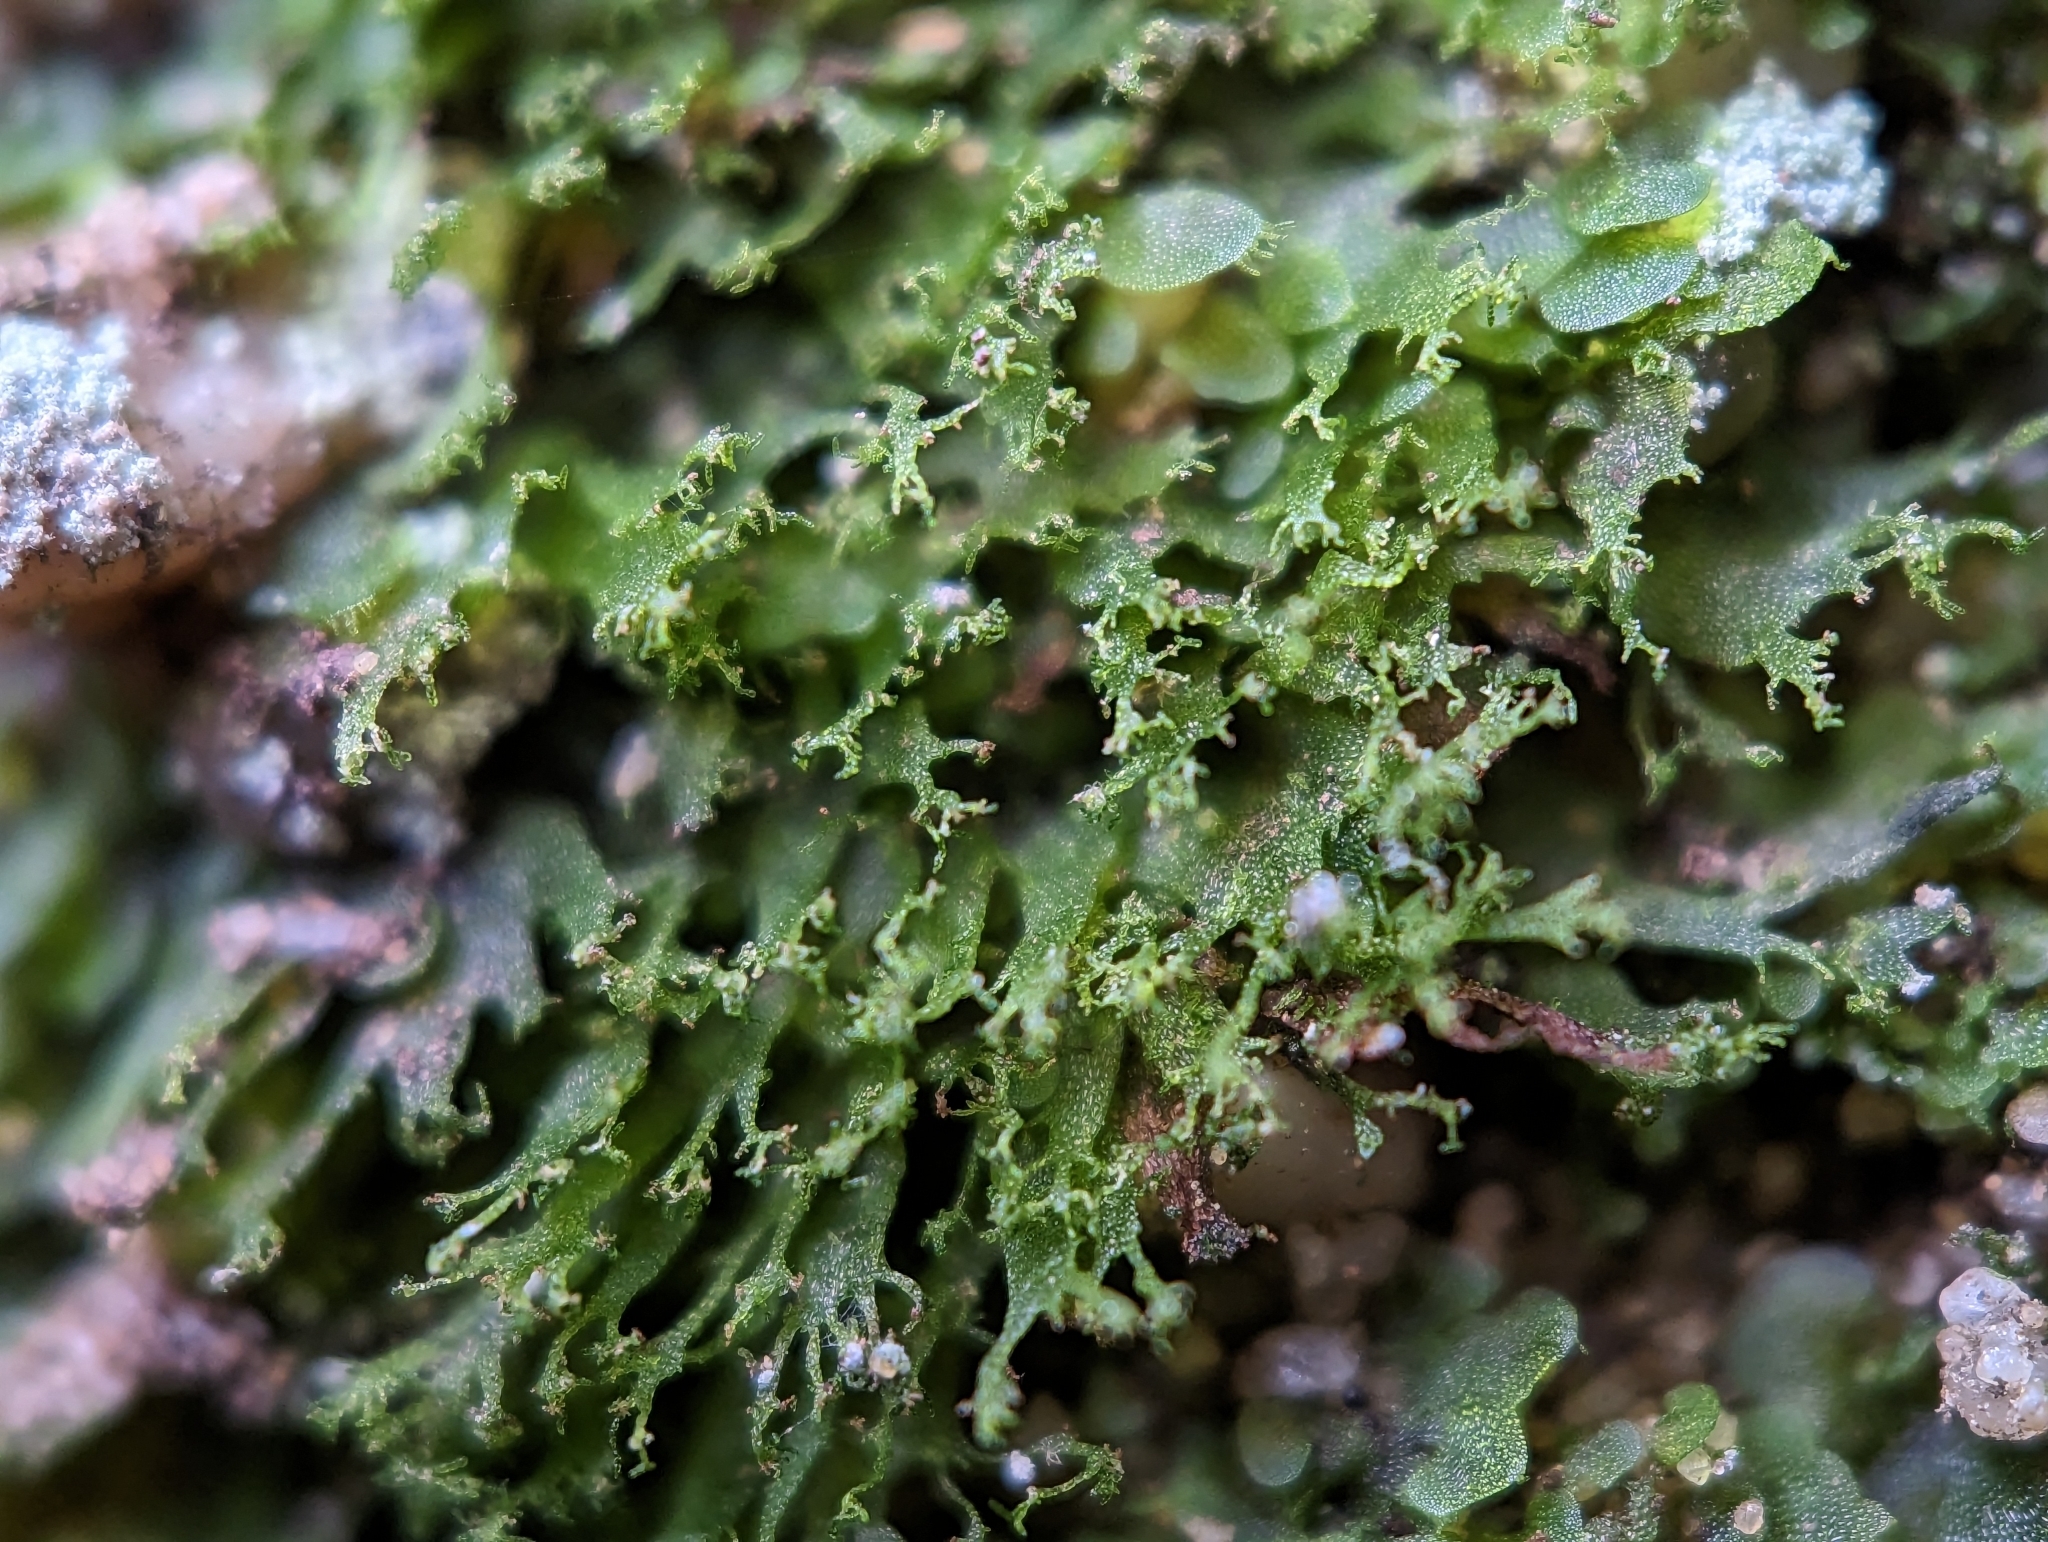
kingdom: Plantae
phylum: Tracheophyta
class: Polypodiopsida
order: Polypodiales
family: Pteridaceae
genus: Vittaria
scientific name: Vittaria appalachiana
